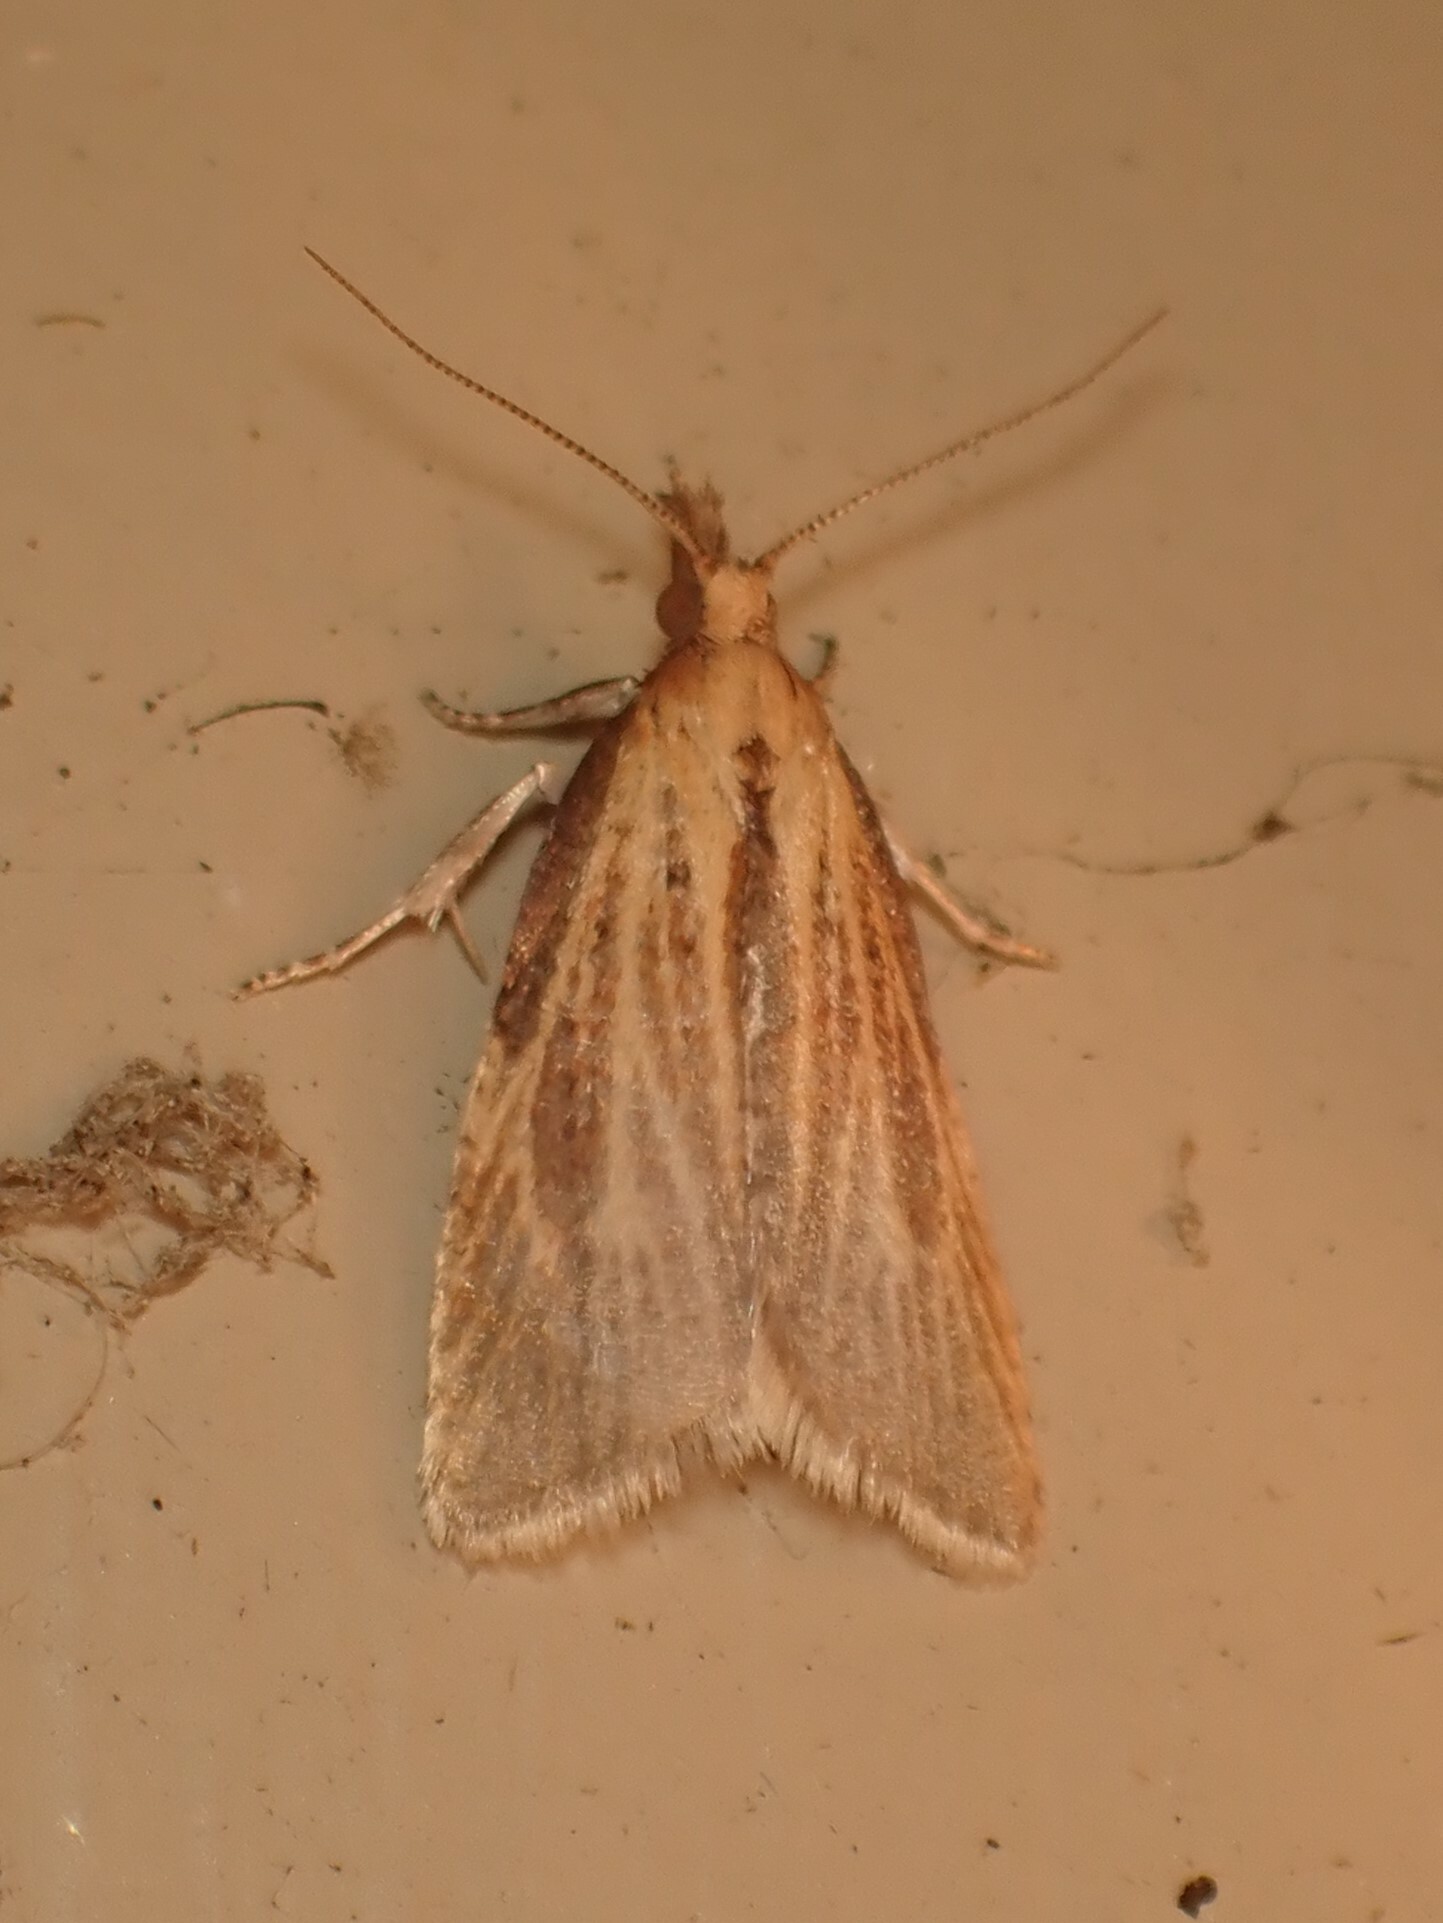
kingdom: Animalia
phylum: Arthropoda
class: Insecta
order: Lepidoptera
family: Tortricidae
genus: Catamacta
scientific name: Catamacta lotinana
